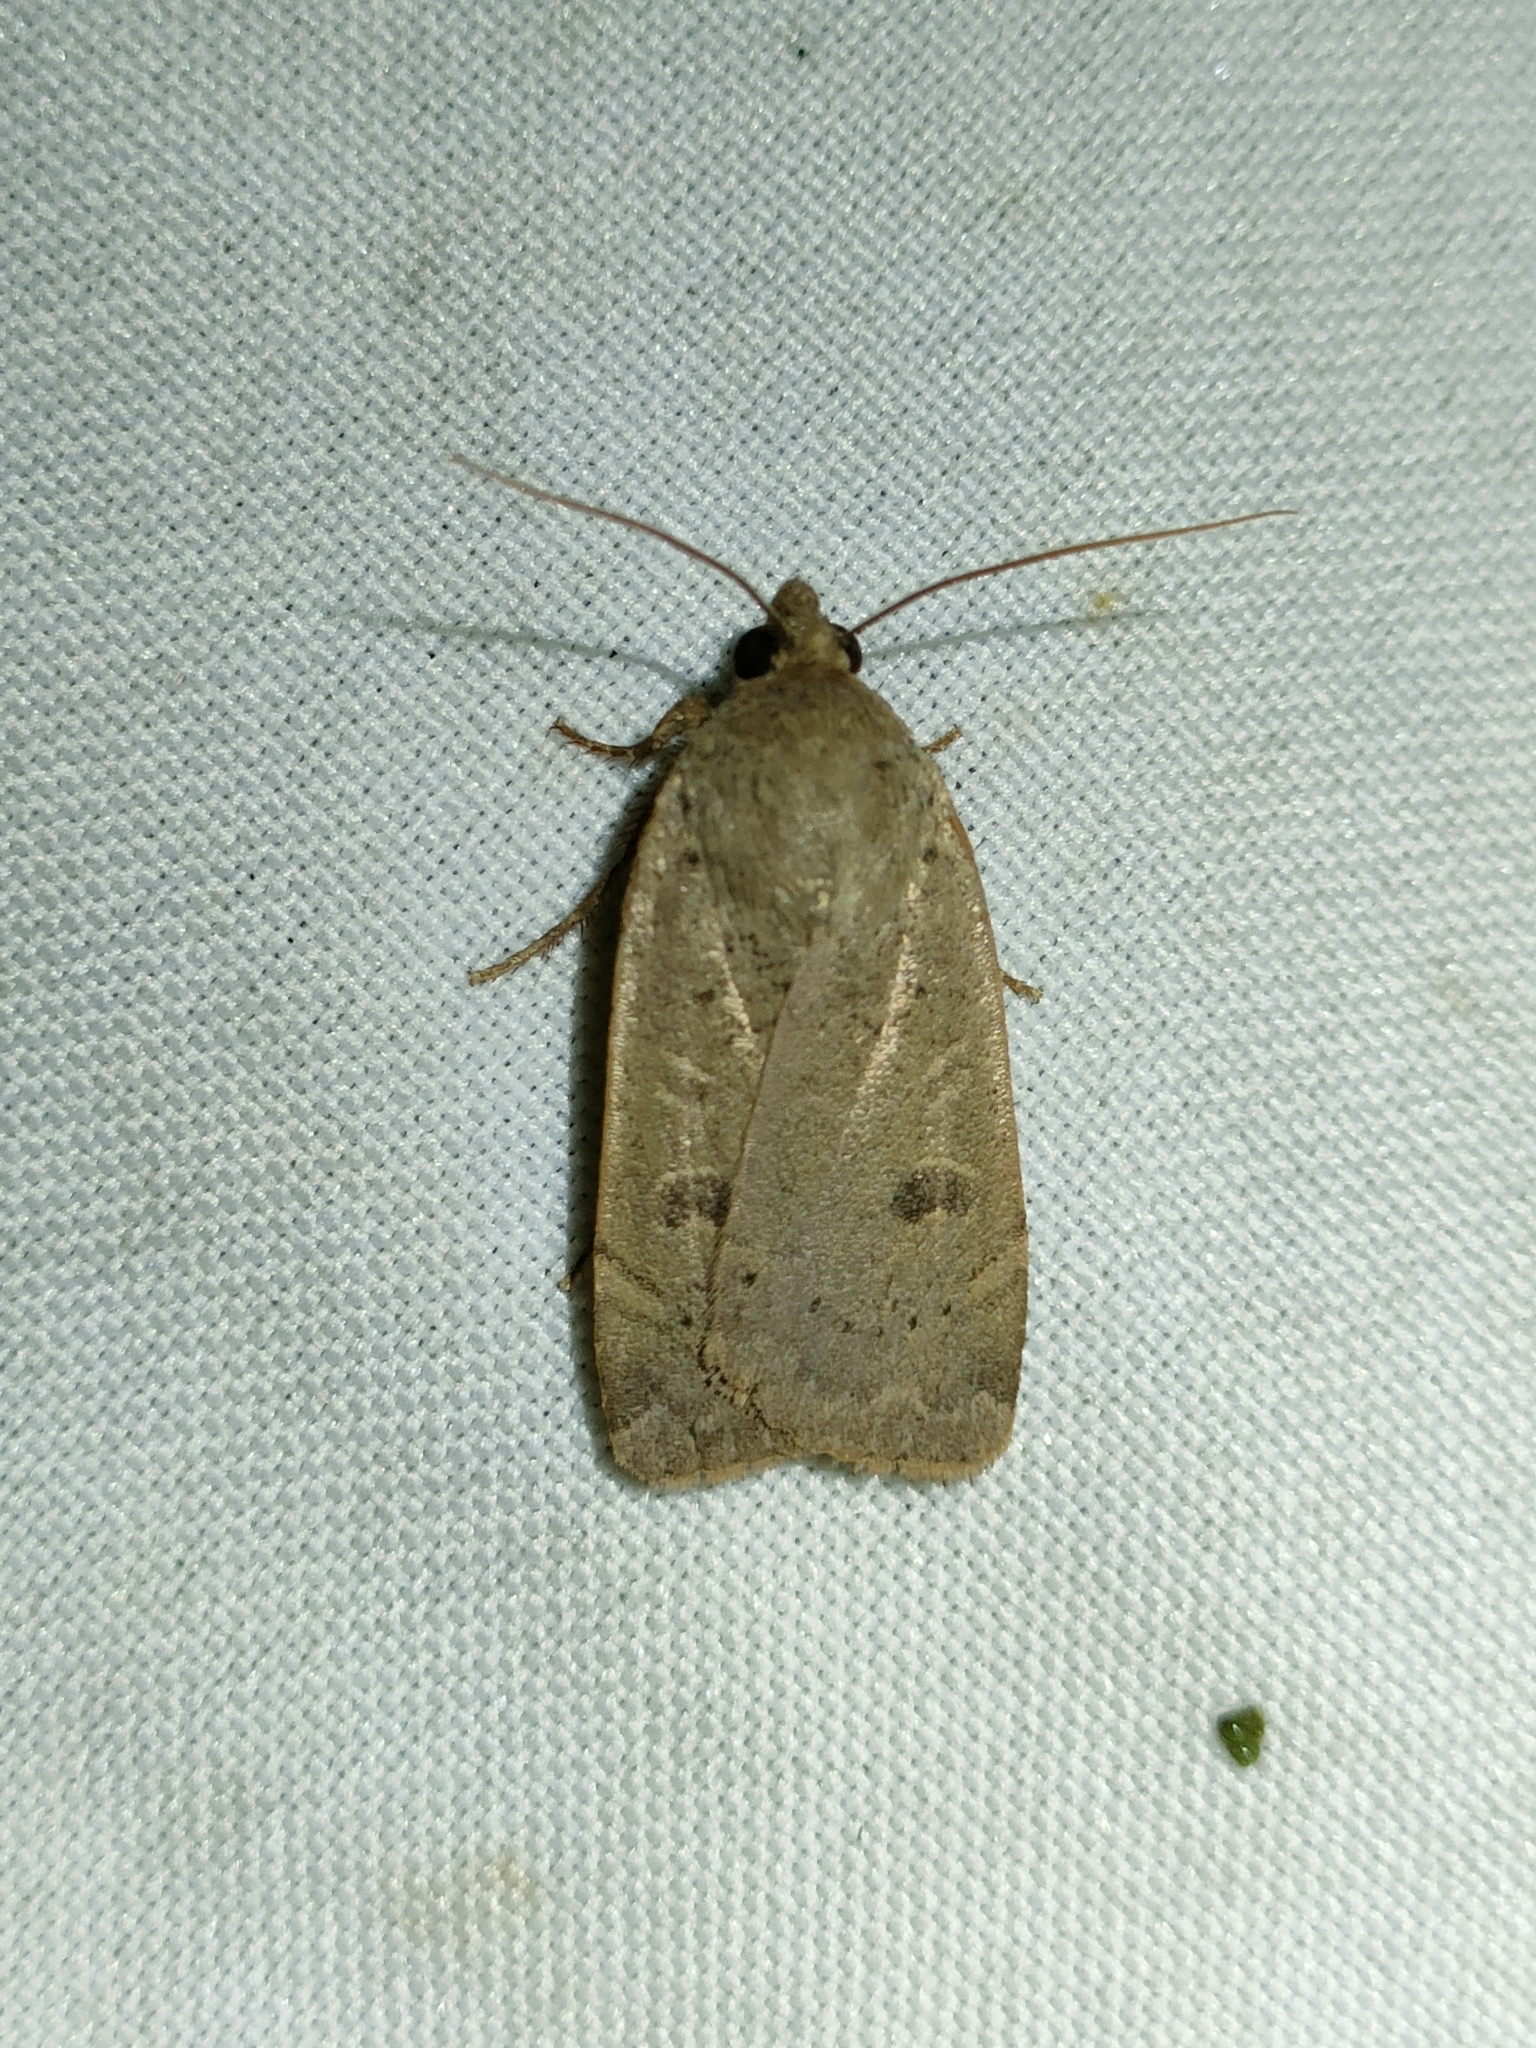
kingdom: Animalia
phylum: Arthropoda
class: Insecta
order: Lepidoptera
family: Noctuidae
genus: Noctua
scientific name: Noctua comes
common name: Lesser yellow underwing
